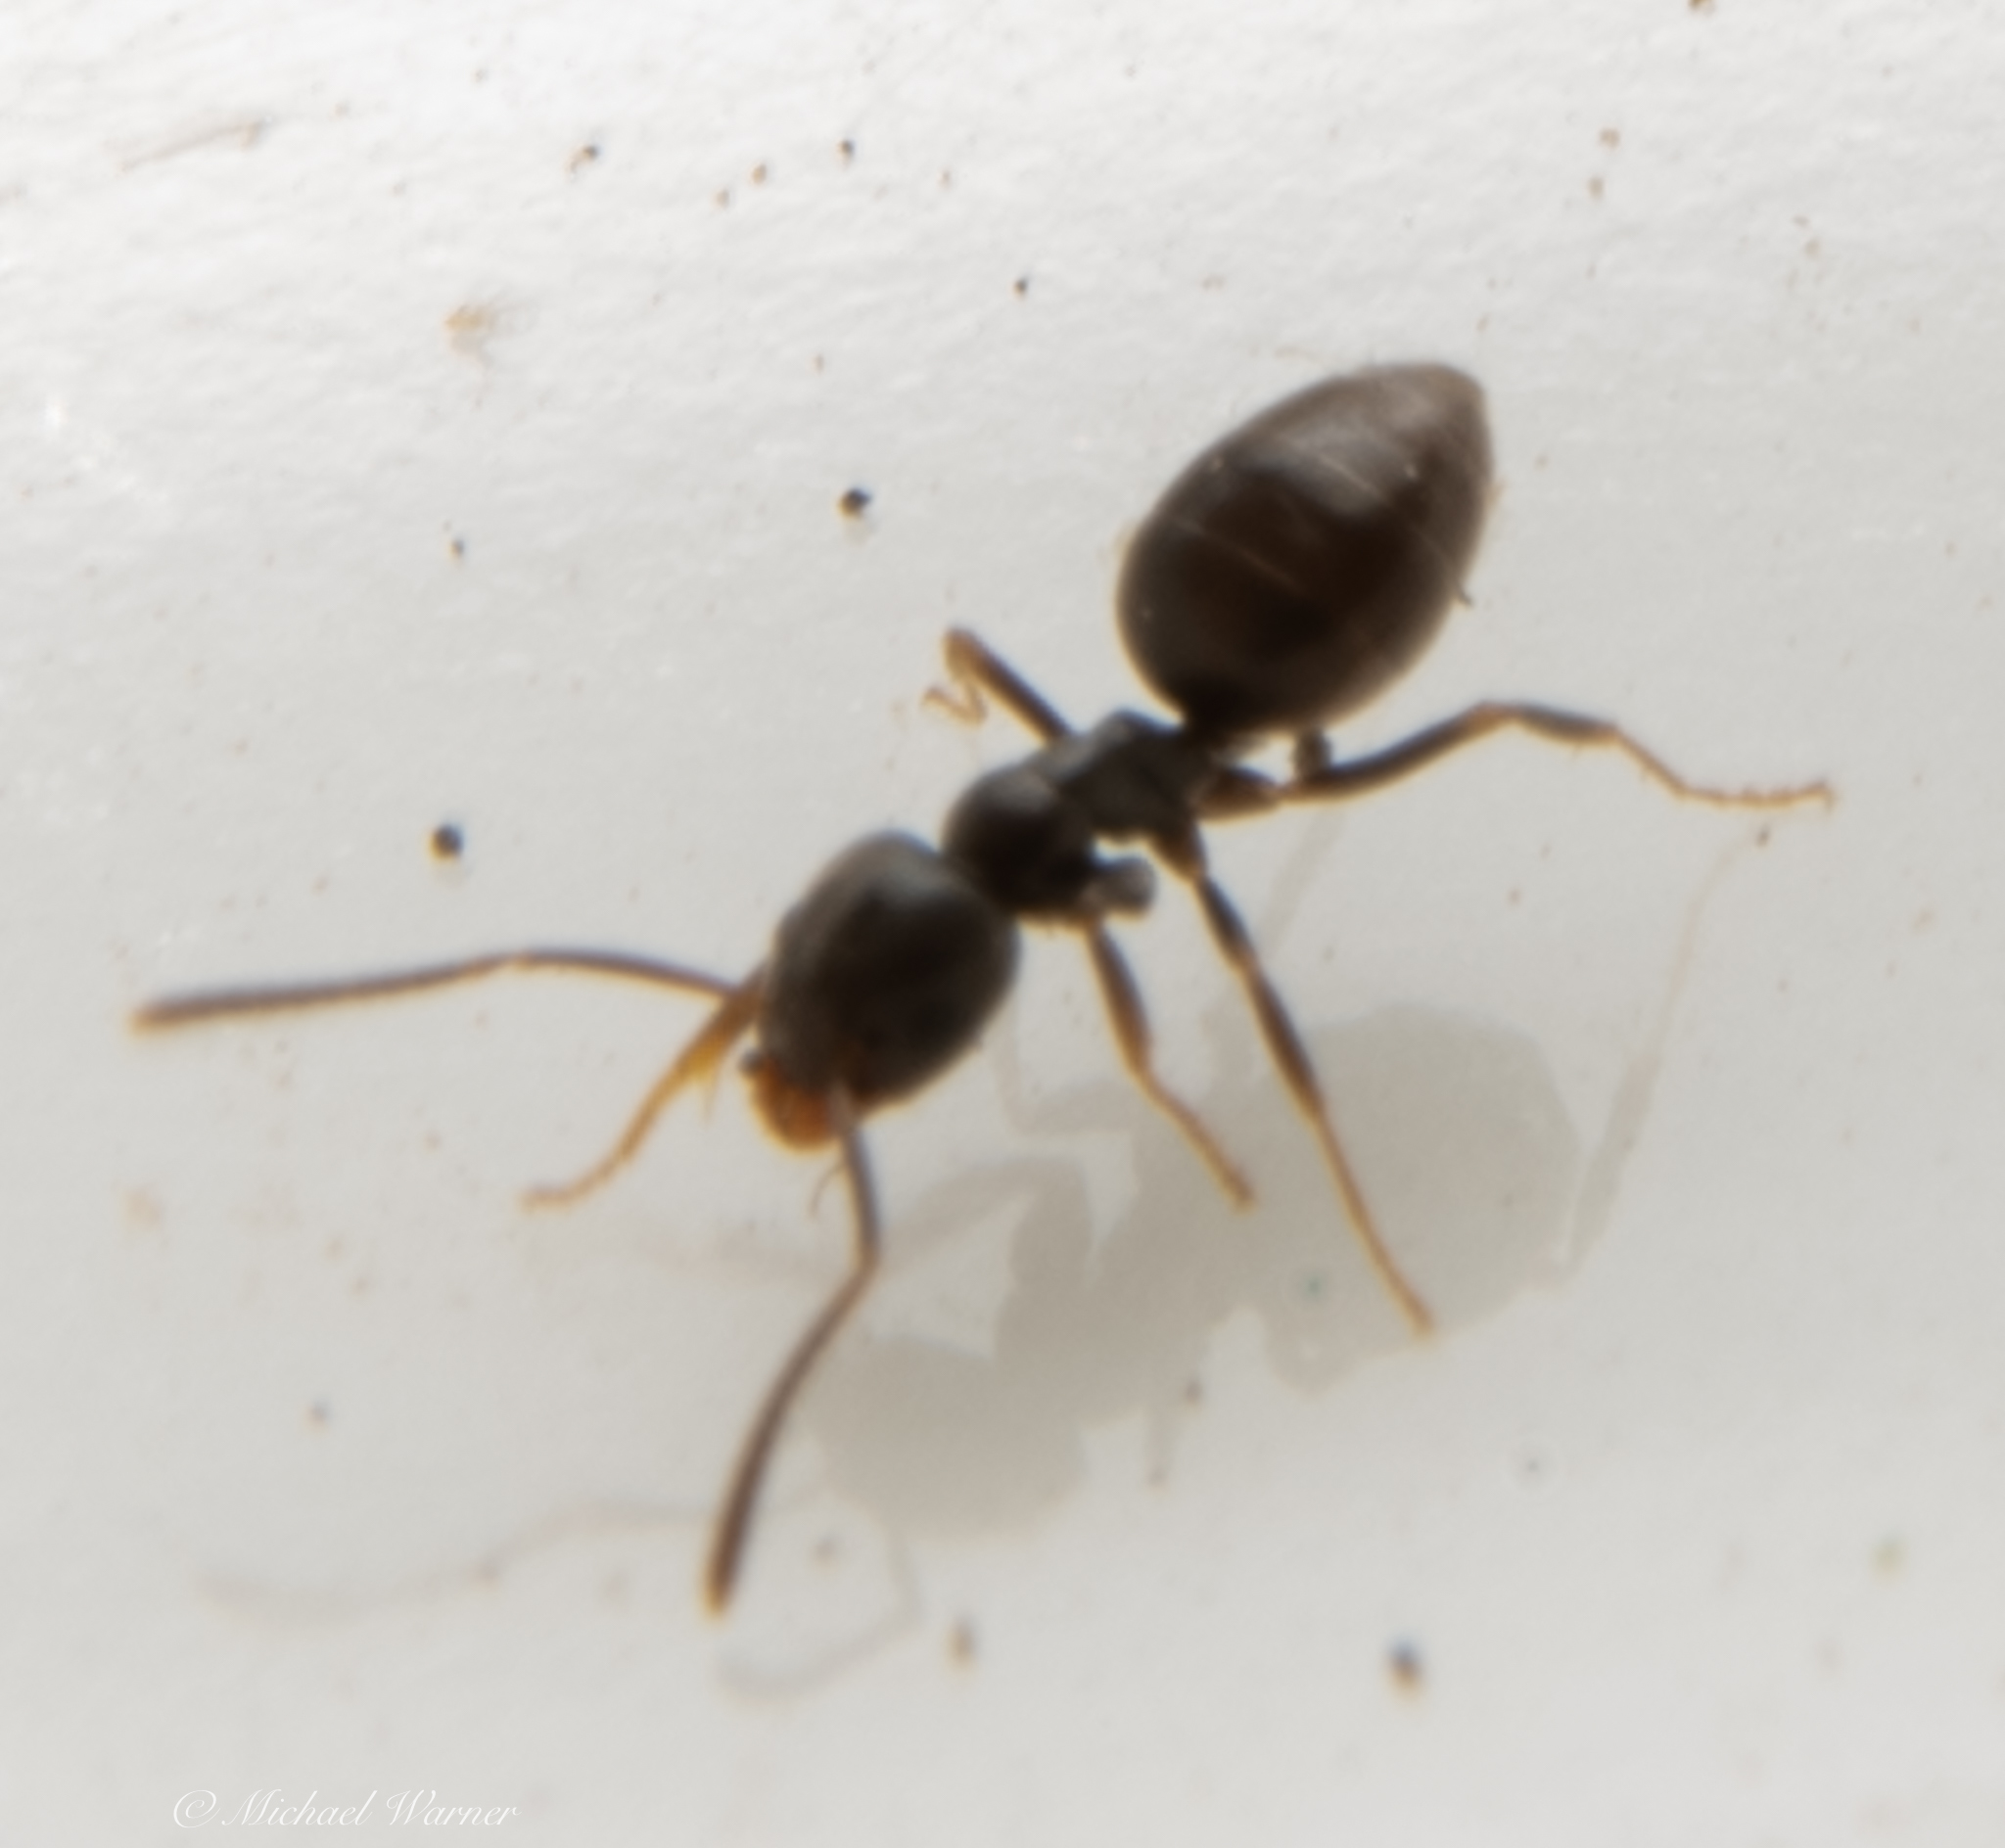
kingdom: Animalia
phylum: Arthropoda
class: Insecta
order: Hymenoptera
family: Formicidae
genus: Tapinoma
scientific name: Tapinoma sessile
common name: Odorous house ant
